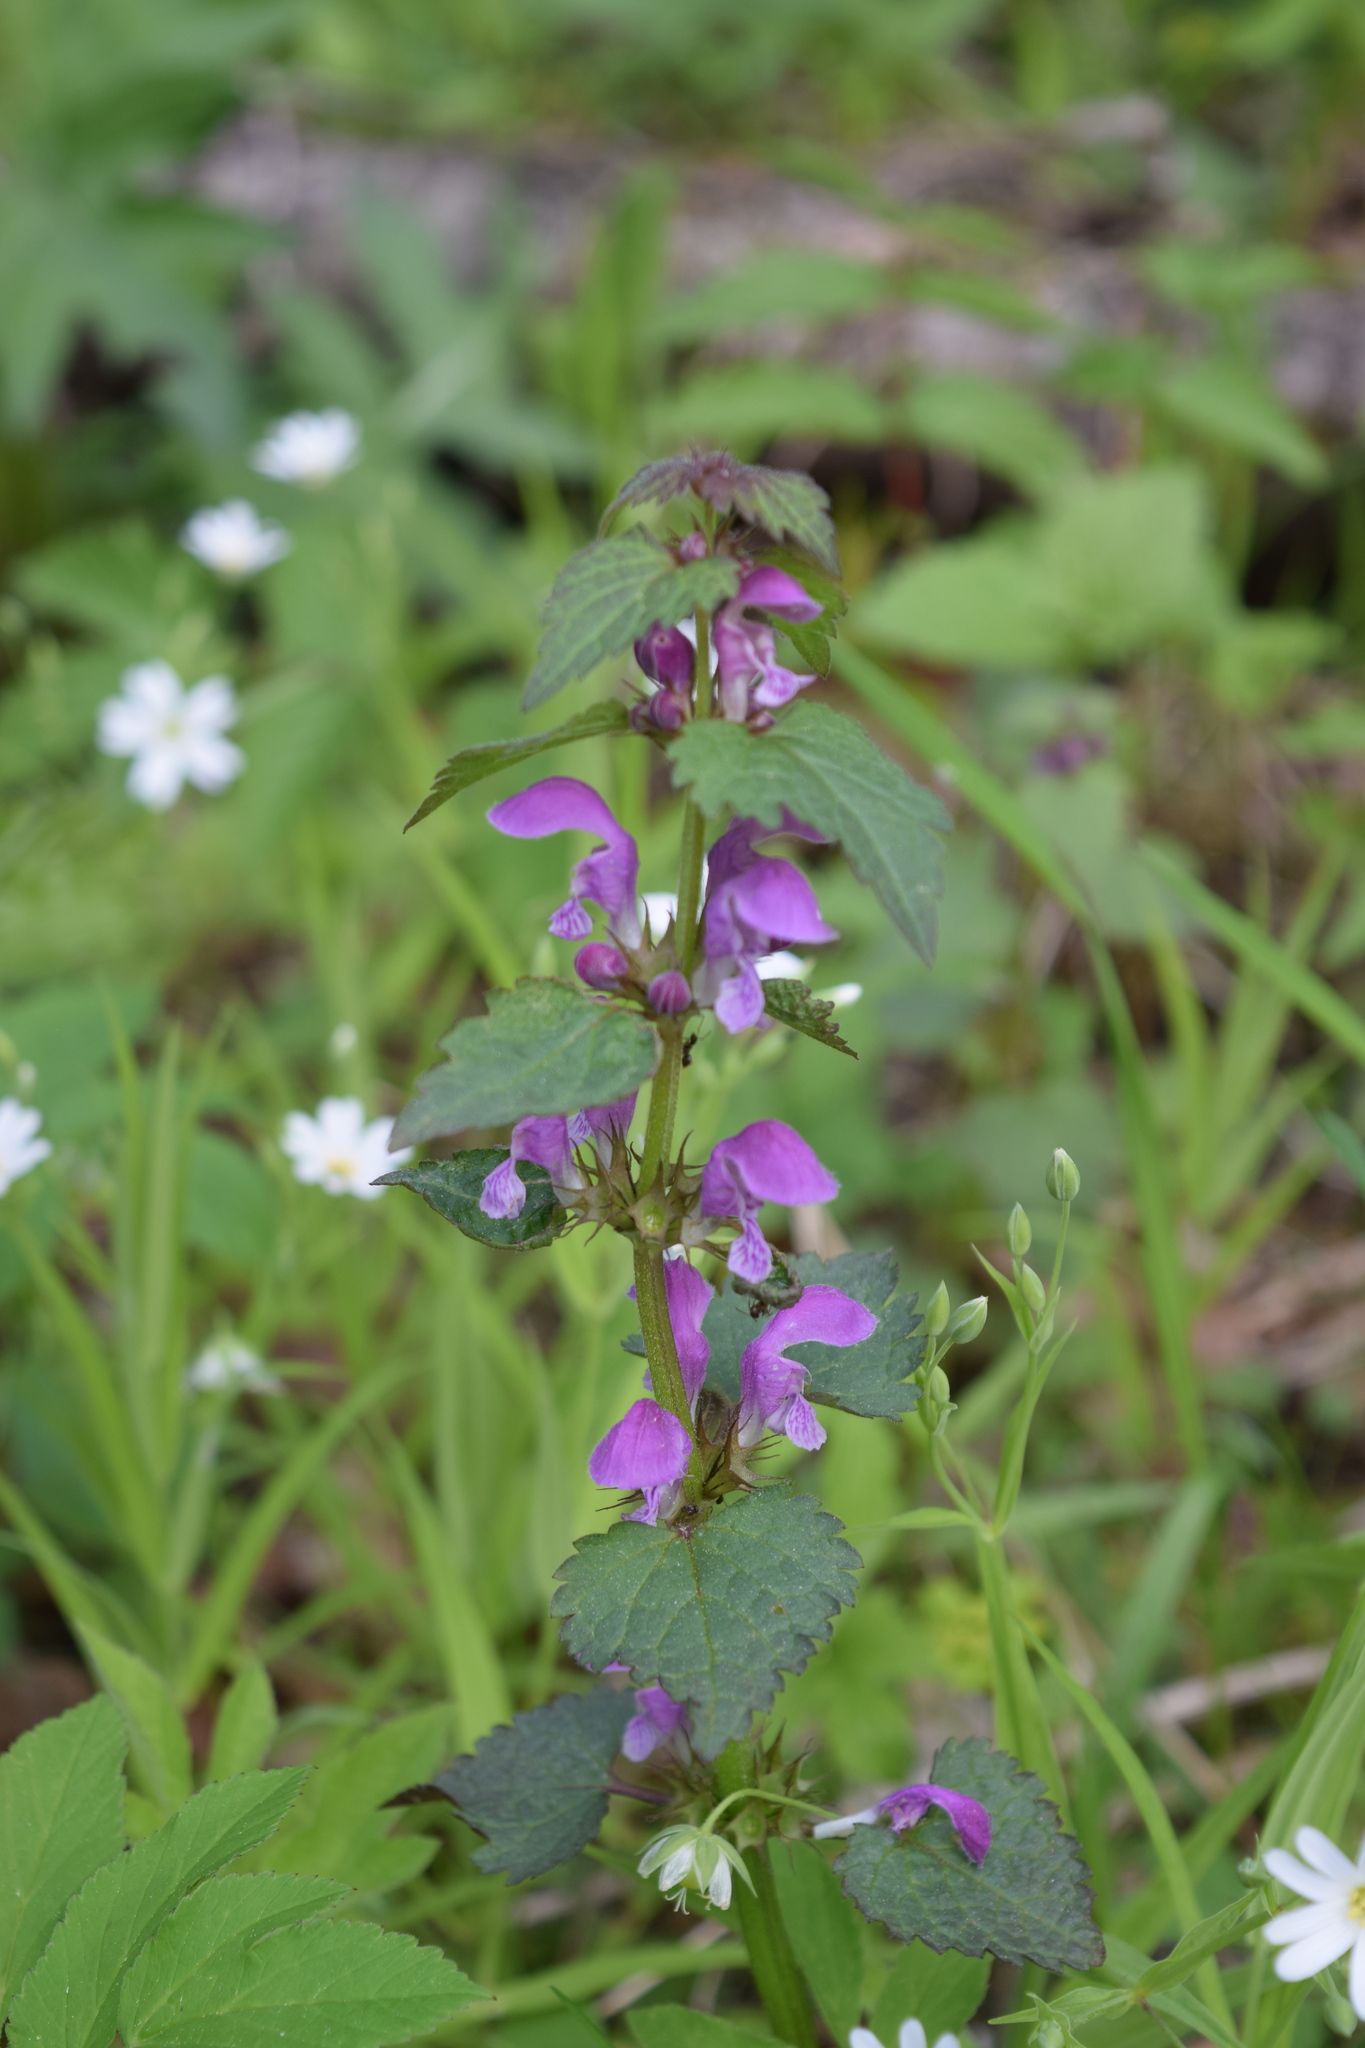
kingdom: Plantae
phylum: Tracheophyta
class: Magnoliopsida
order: Lamiales
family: Lamiaceae
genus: Lamium
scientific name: Lamium maculatum
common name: Spotted dead-nettle
